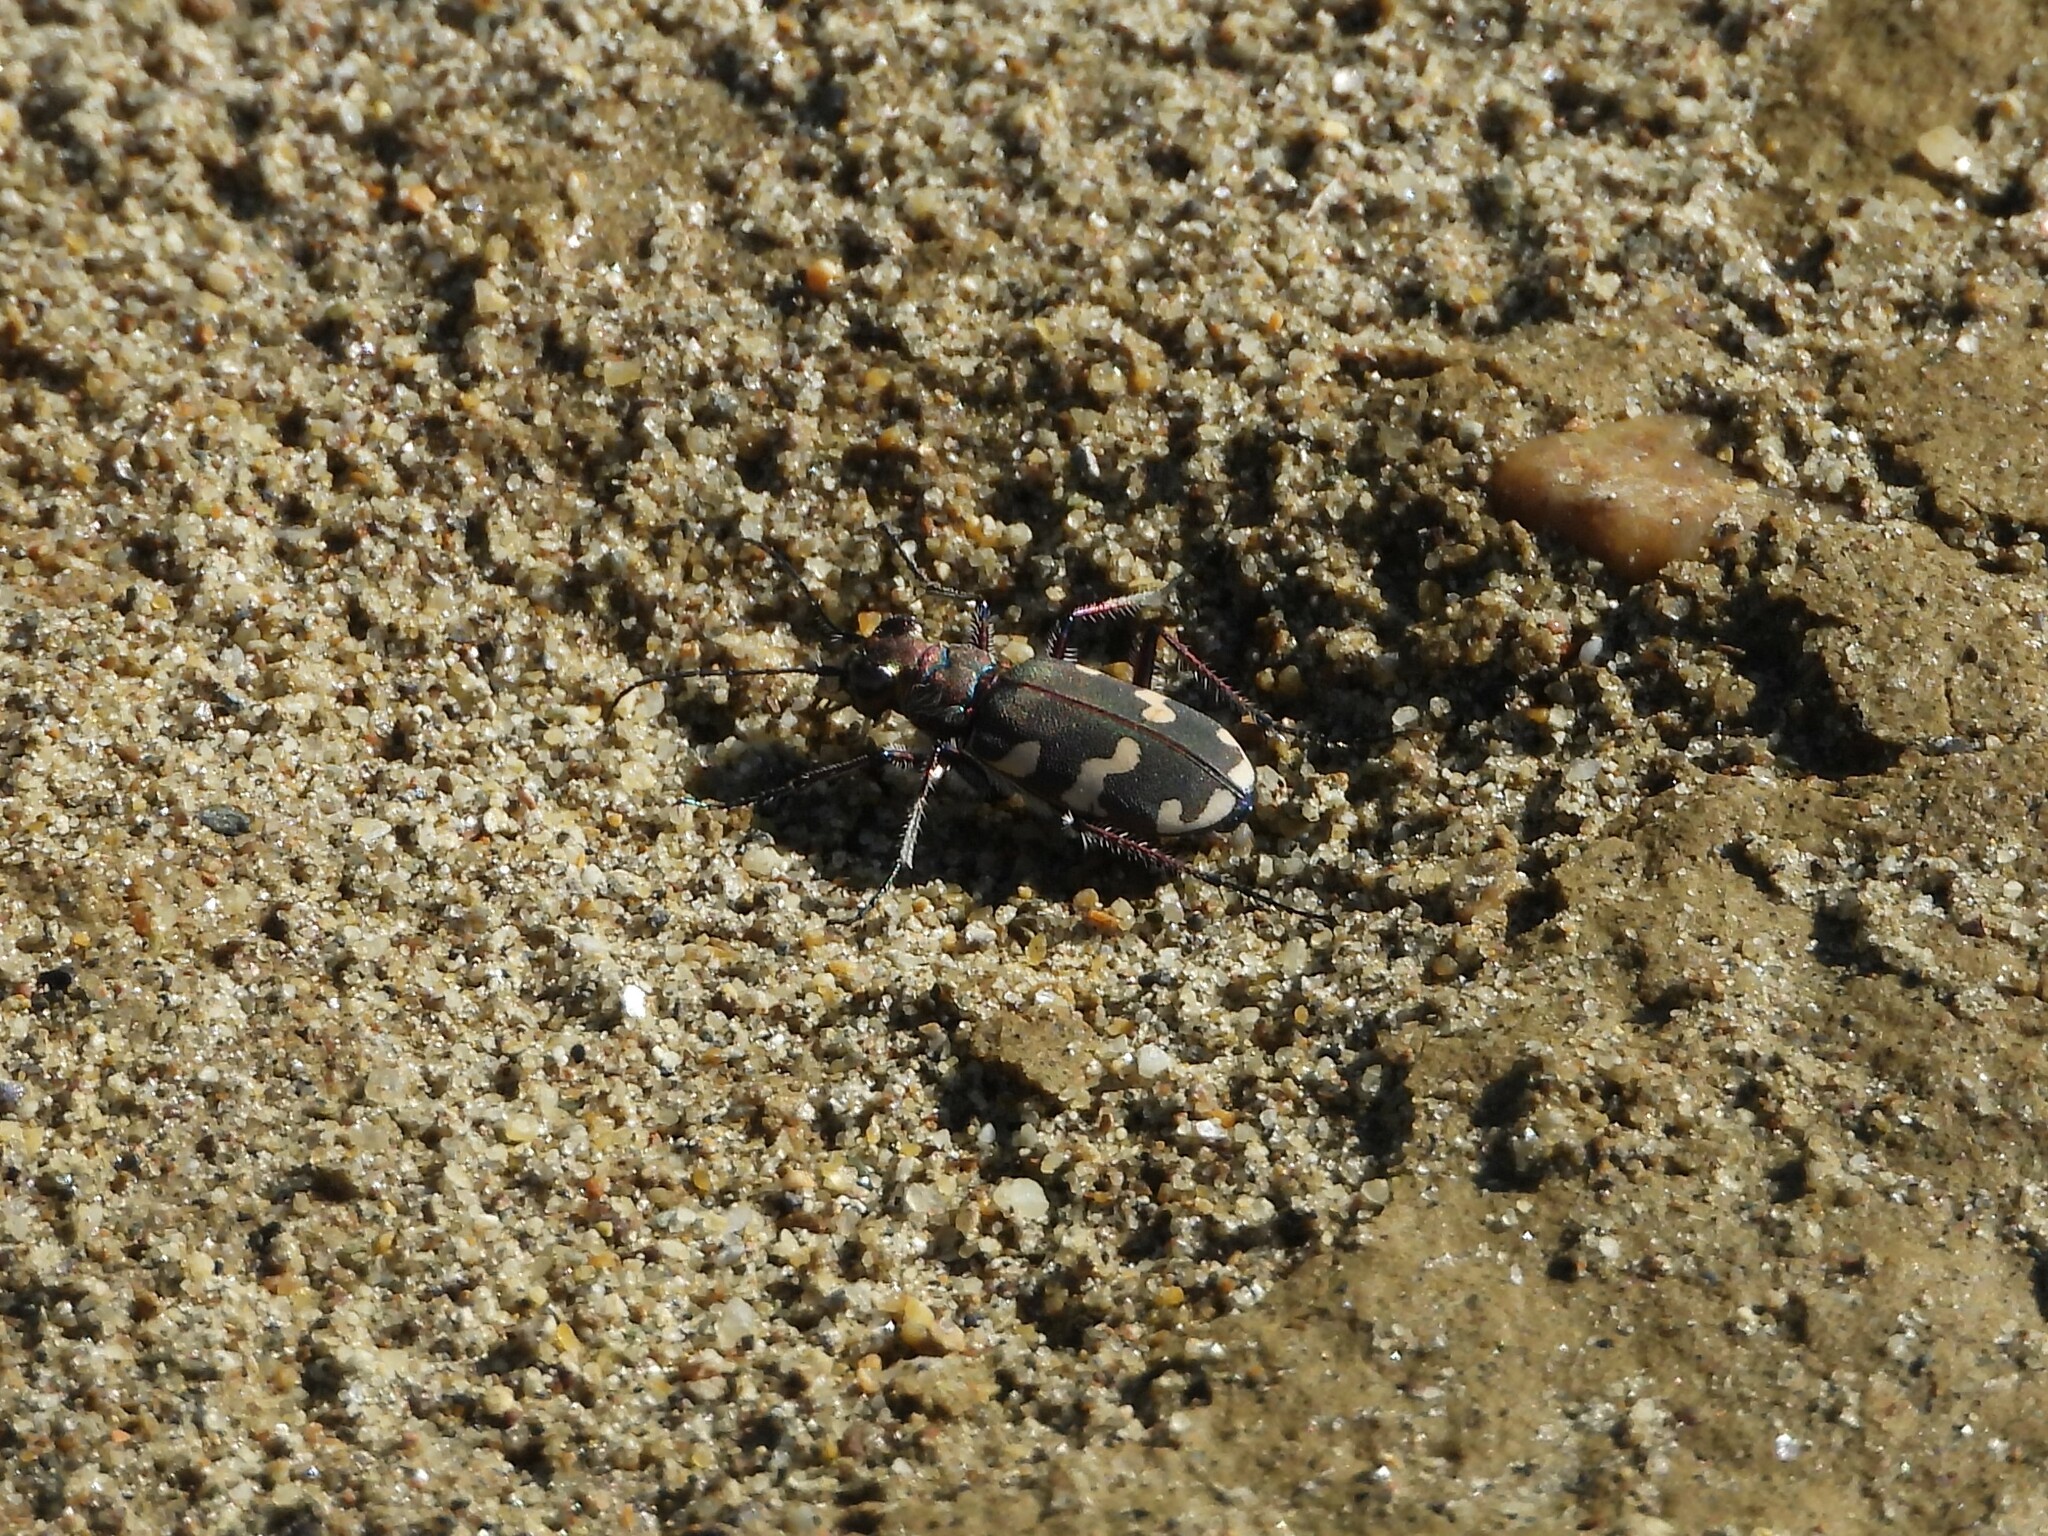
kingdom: Animalia
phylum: Arthropoda
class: Insecta
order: Coleoptera
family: Carabidae
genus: Cicindela
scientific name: Cicindela hybrida
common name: Northern dune tiger beetle
